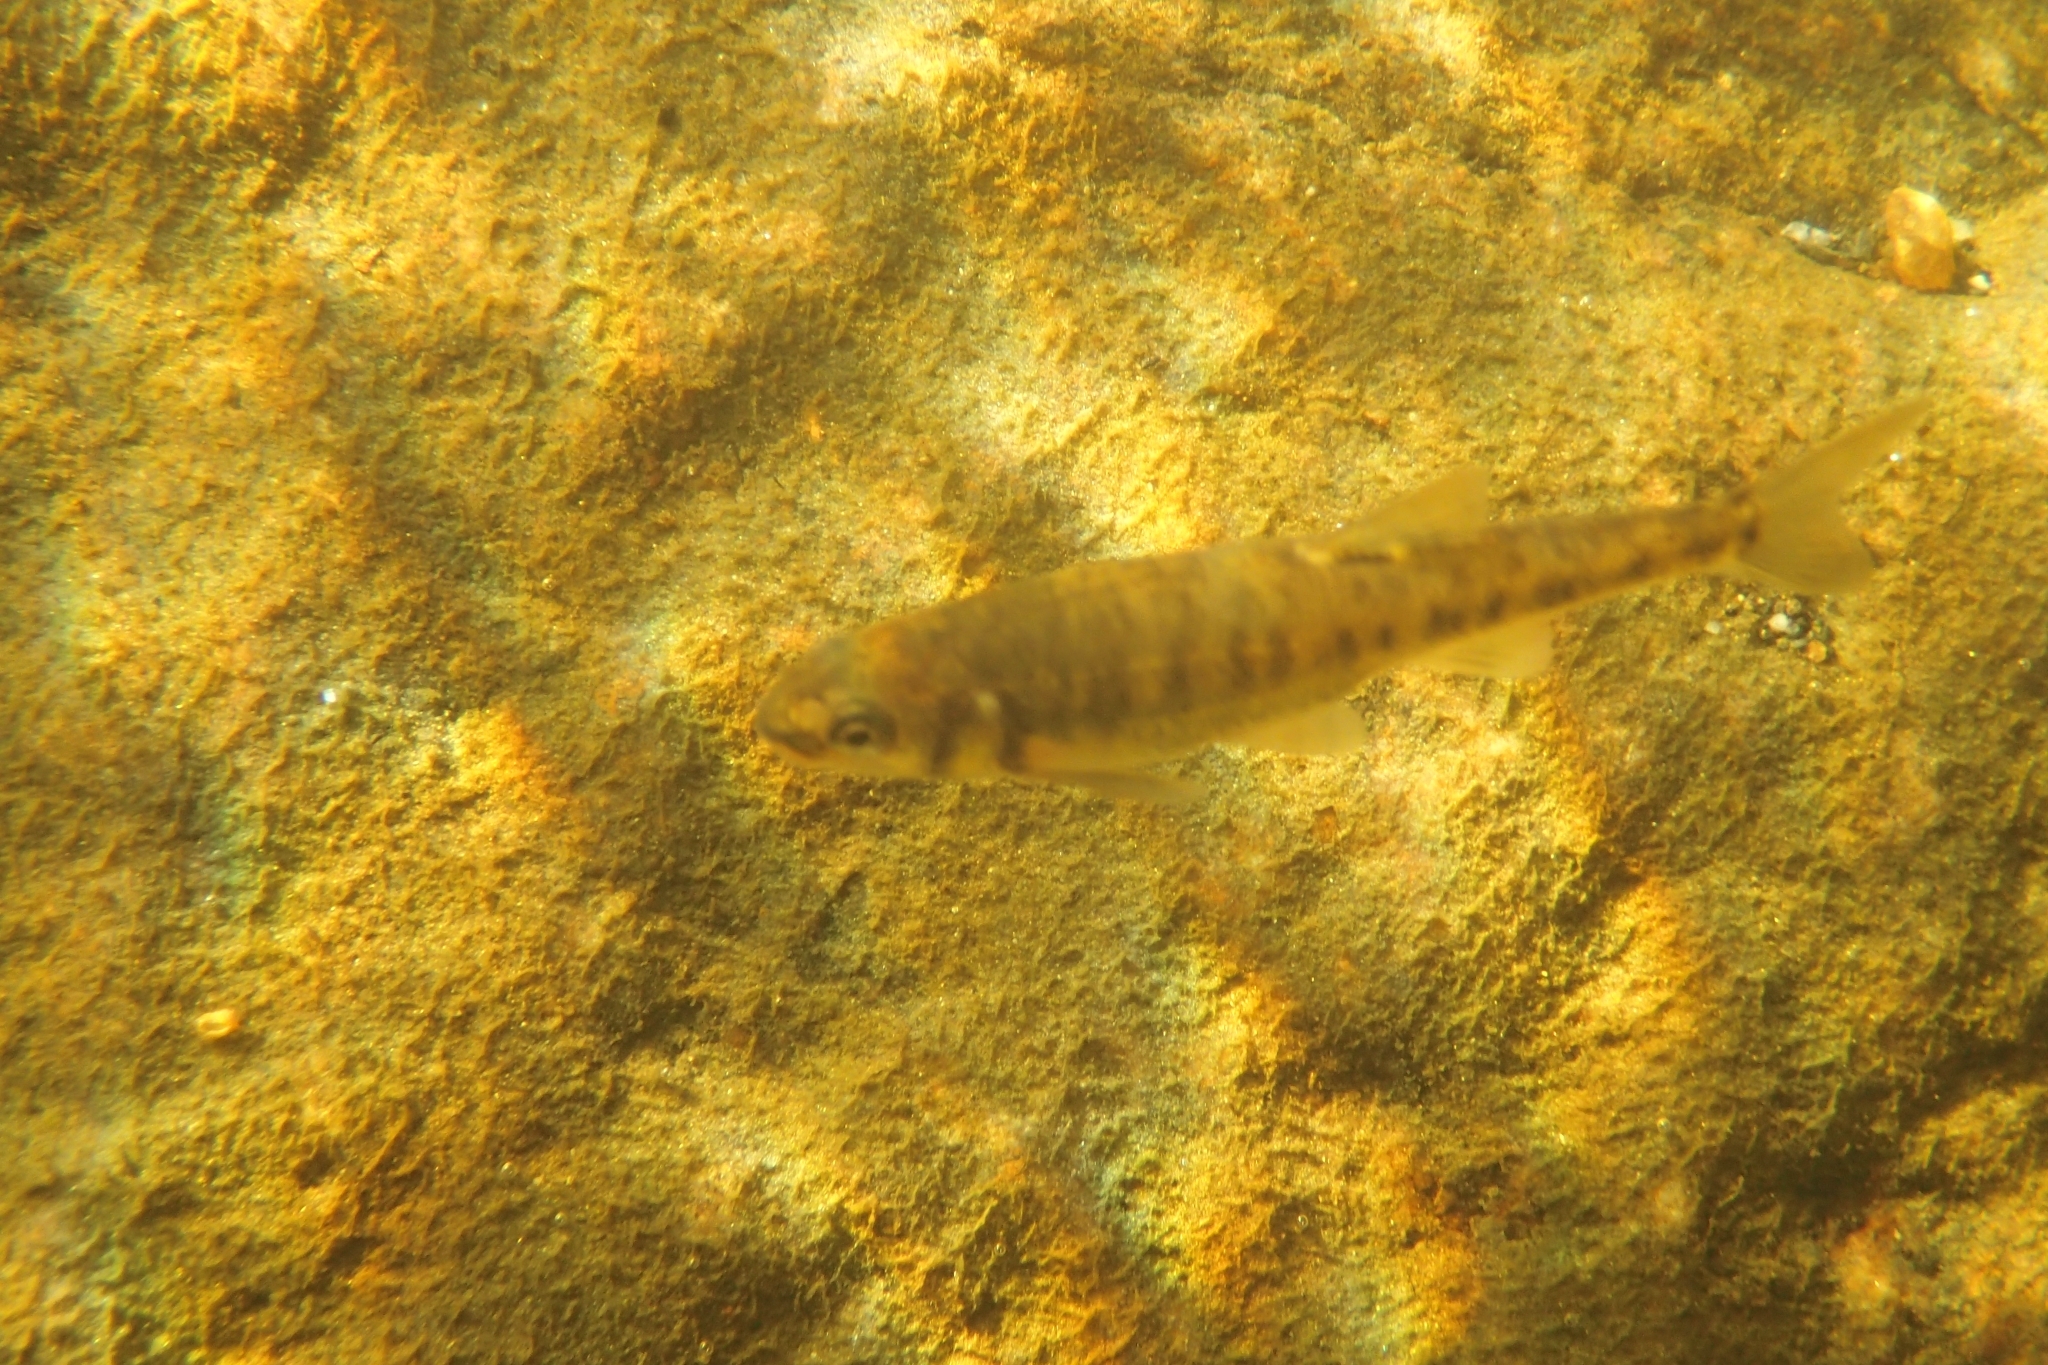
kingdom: Animalia
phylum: Chordata
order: Cypriniformes
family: Cyprinidae
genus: Phoxinus
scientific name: Phoxinus phoxinus
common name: Minnow
